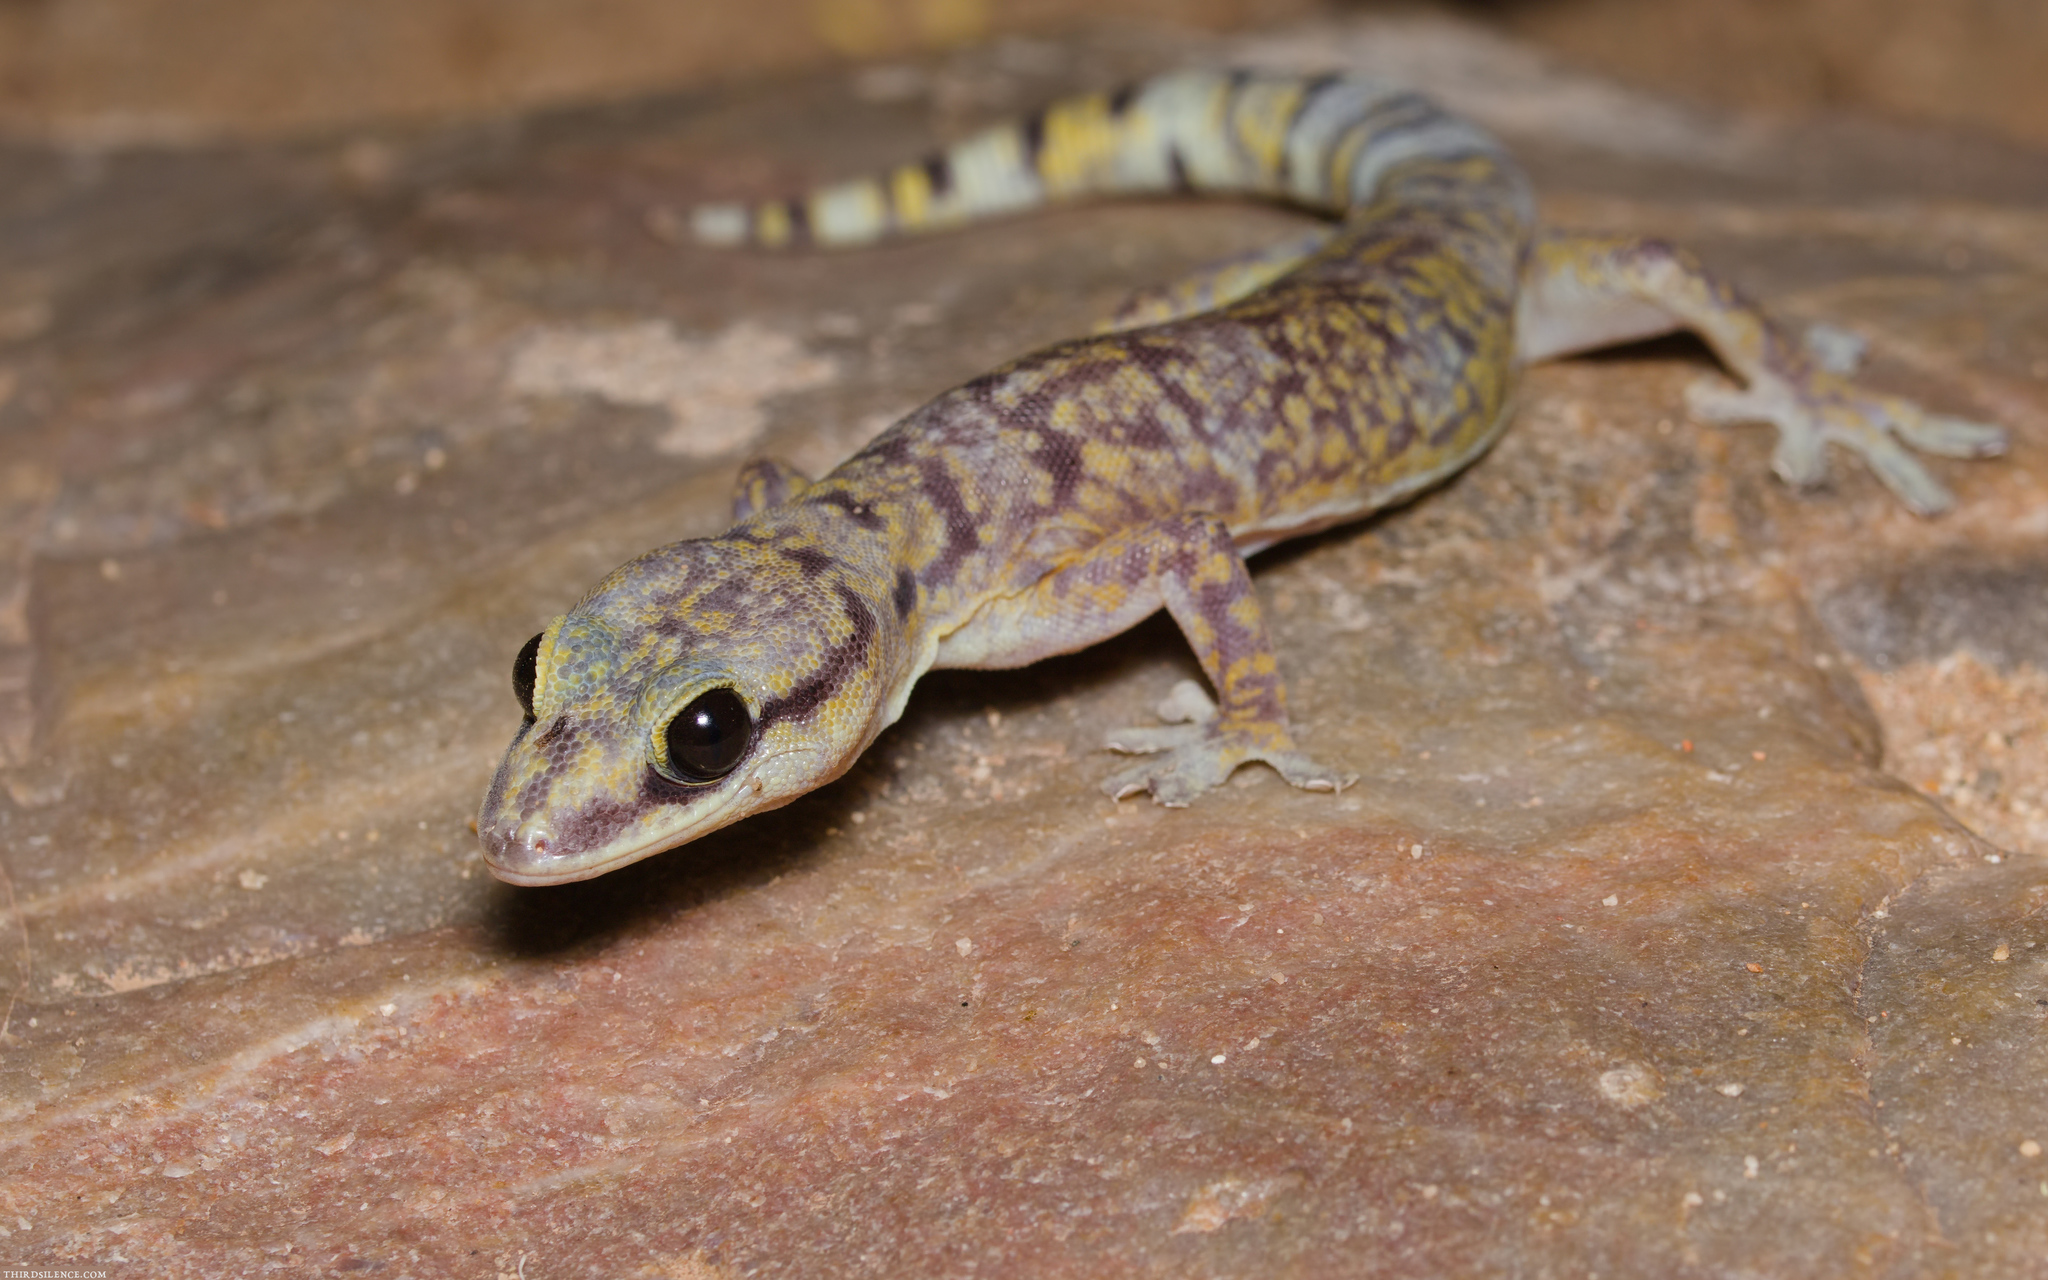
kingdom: Animalia
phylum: Chordata
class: Squamata
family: Diplodactylidae
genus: Oedura
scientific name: Oedura cincta
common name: Inland marbled velvet gecko
